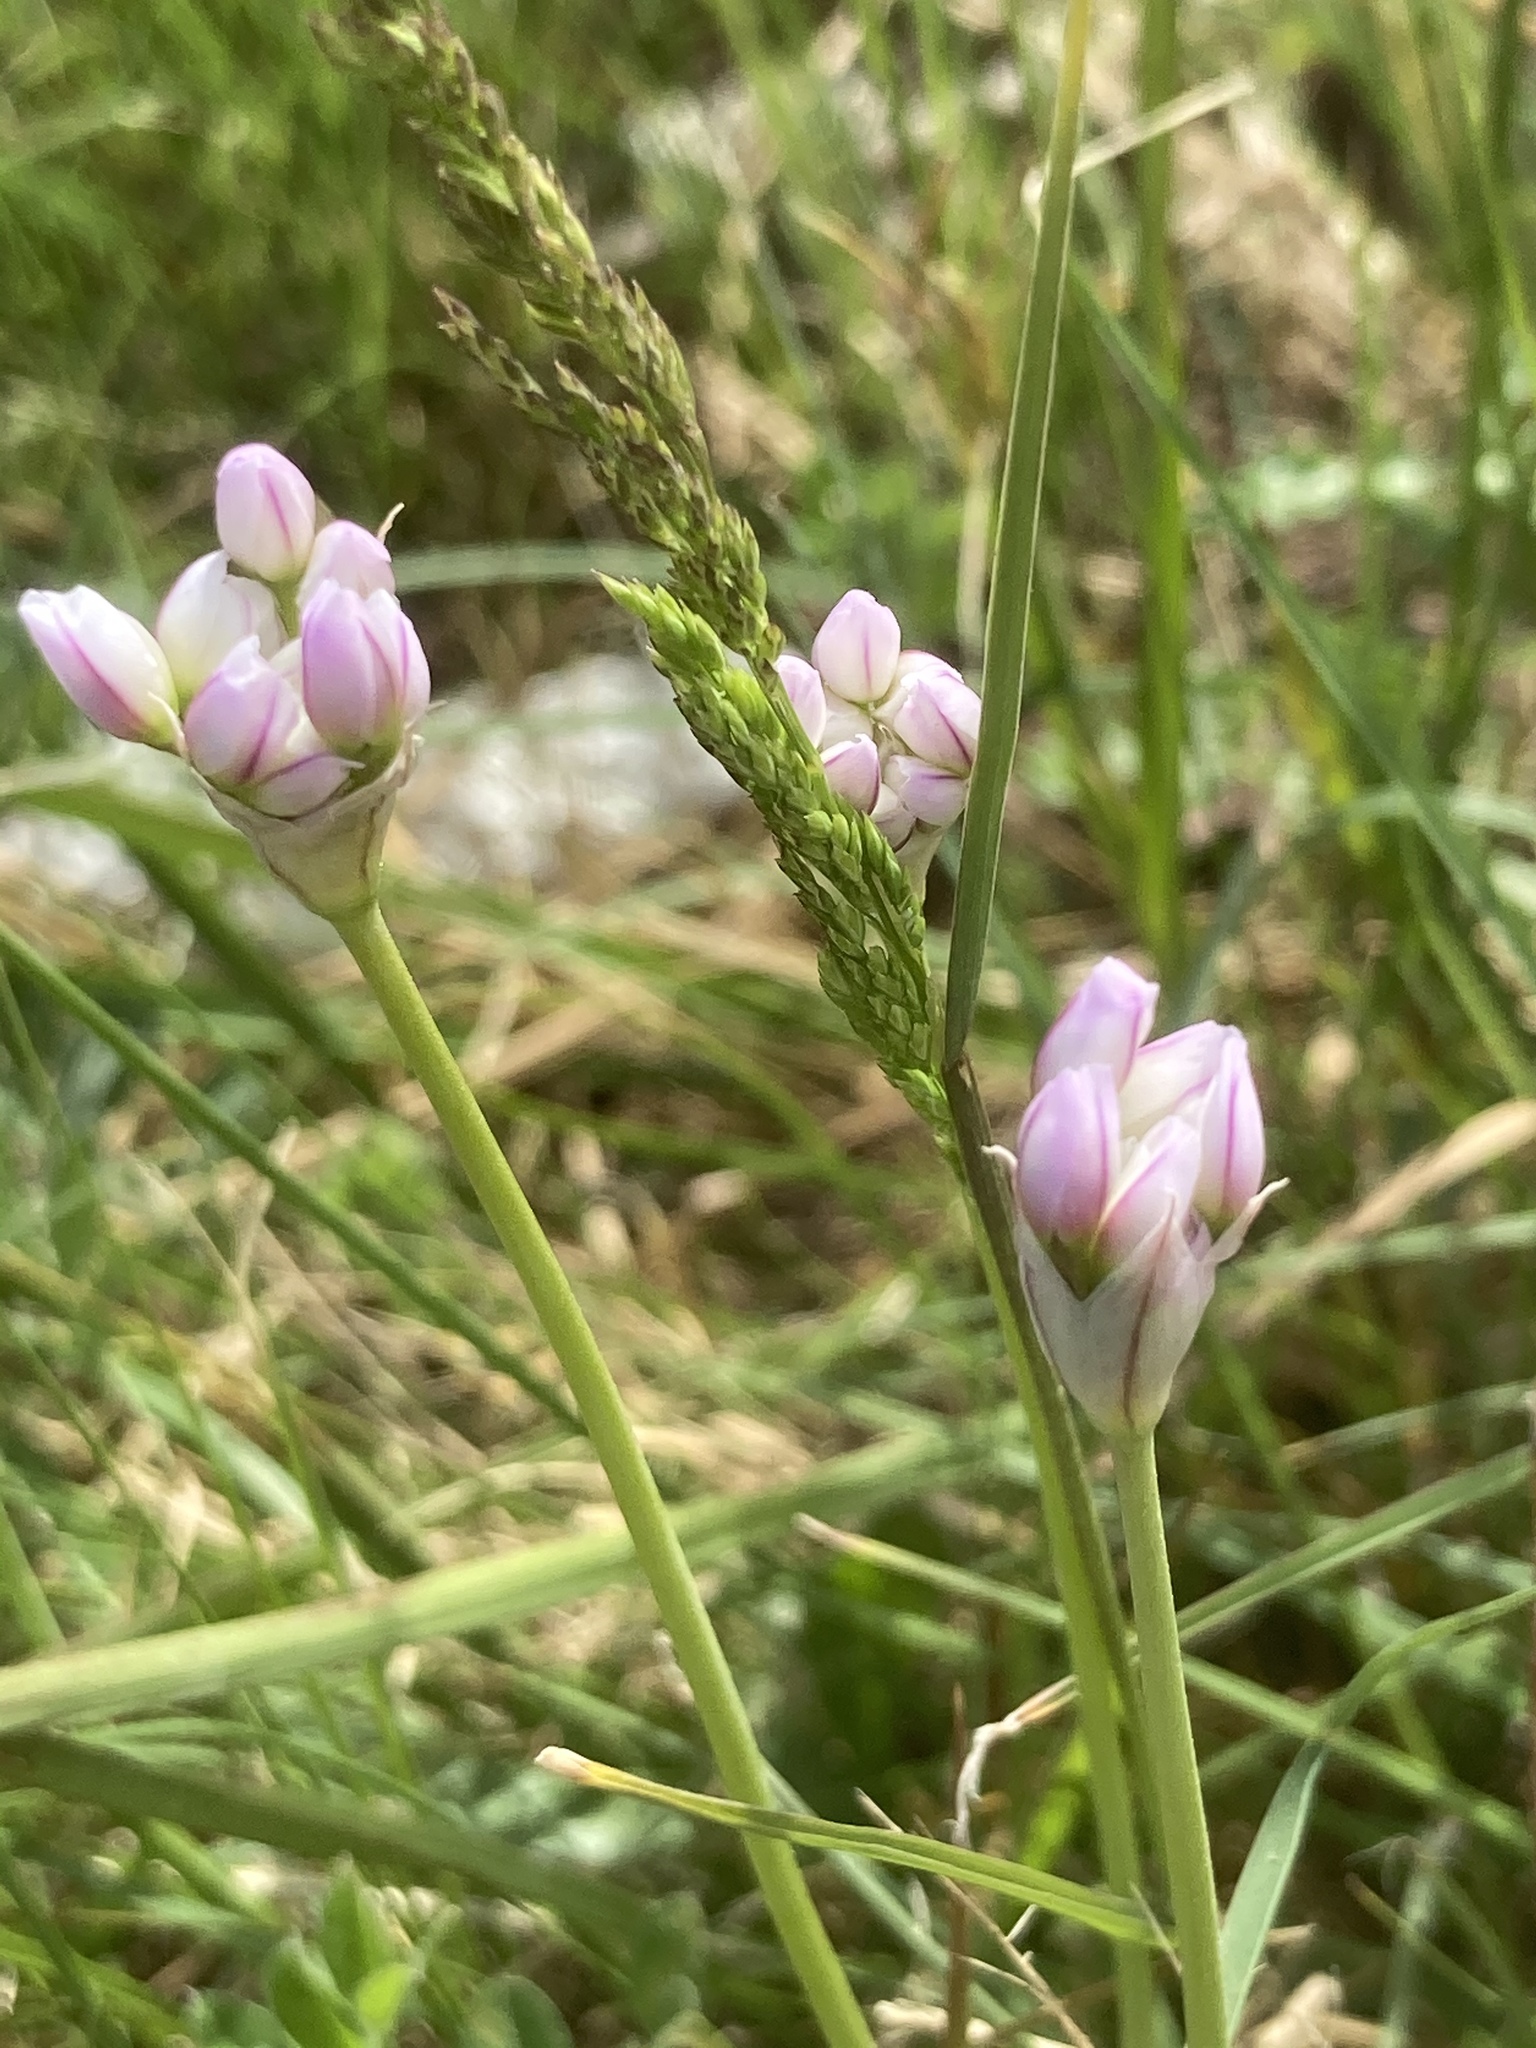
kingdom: Plantae
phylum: Tracheophyta
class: Liliopsida
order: Asparagales
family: Amaryllidaceae
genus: Allium
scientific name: Allium roseum
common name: Rosy garlic
